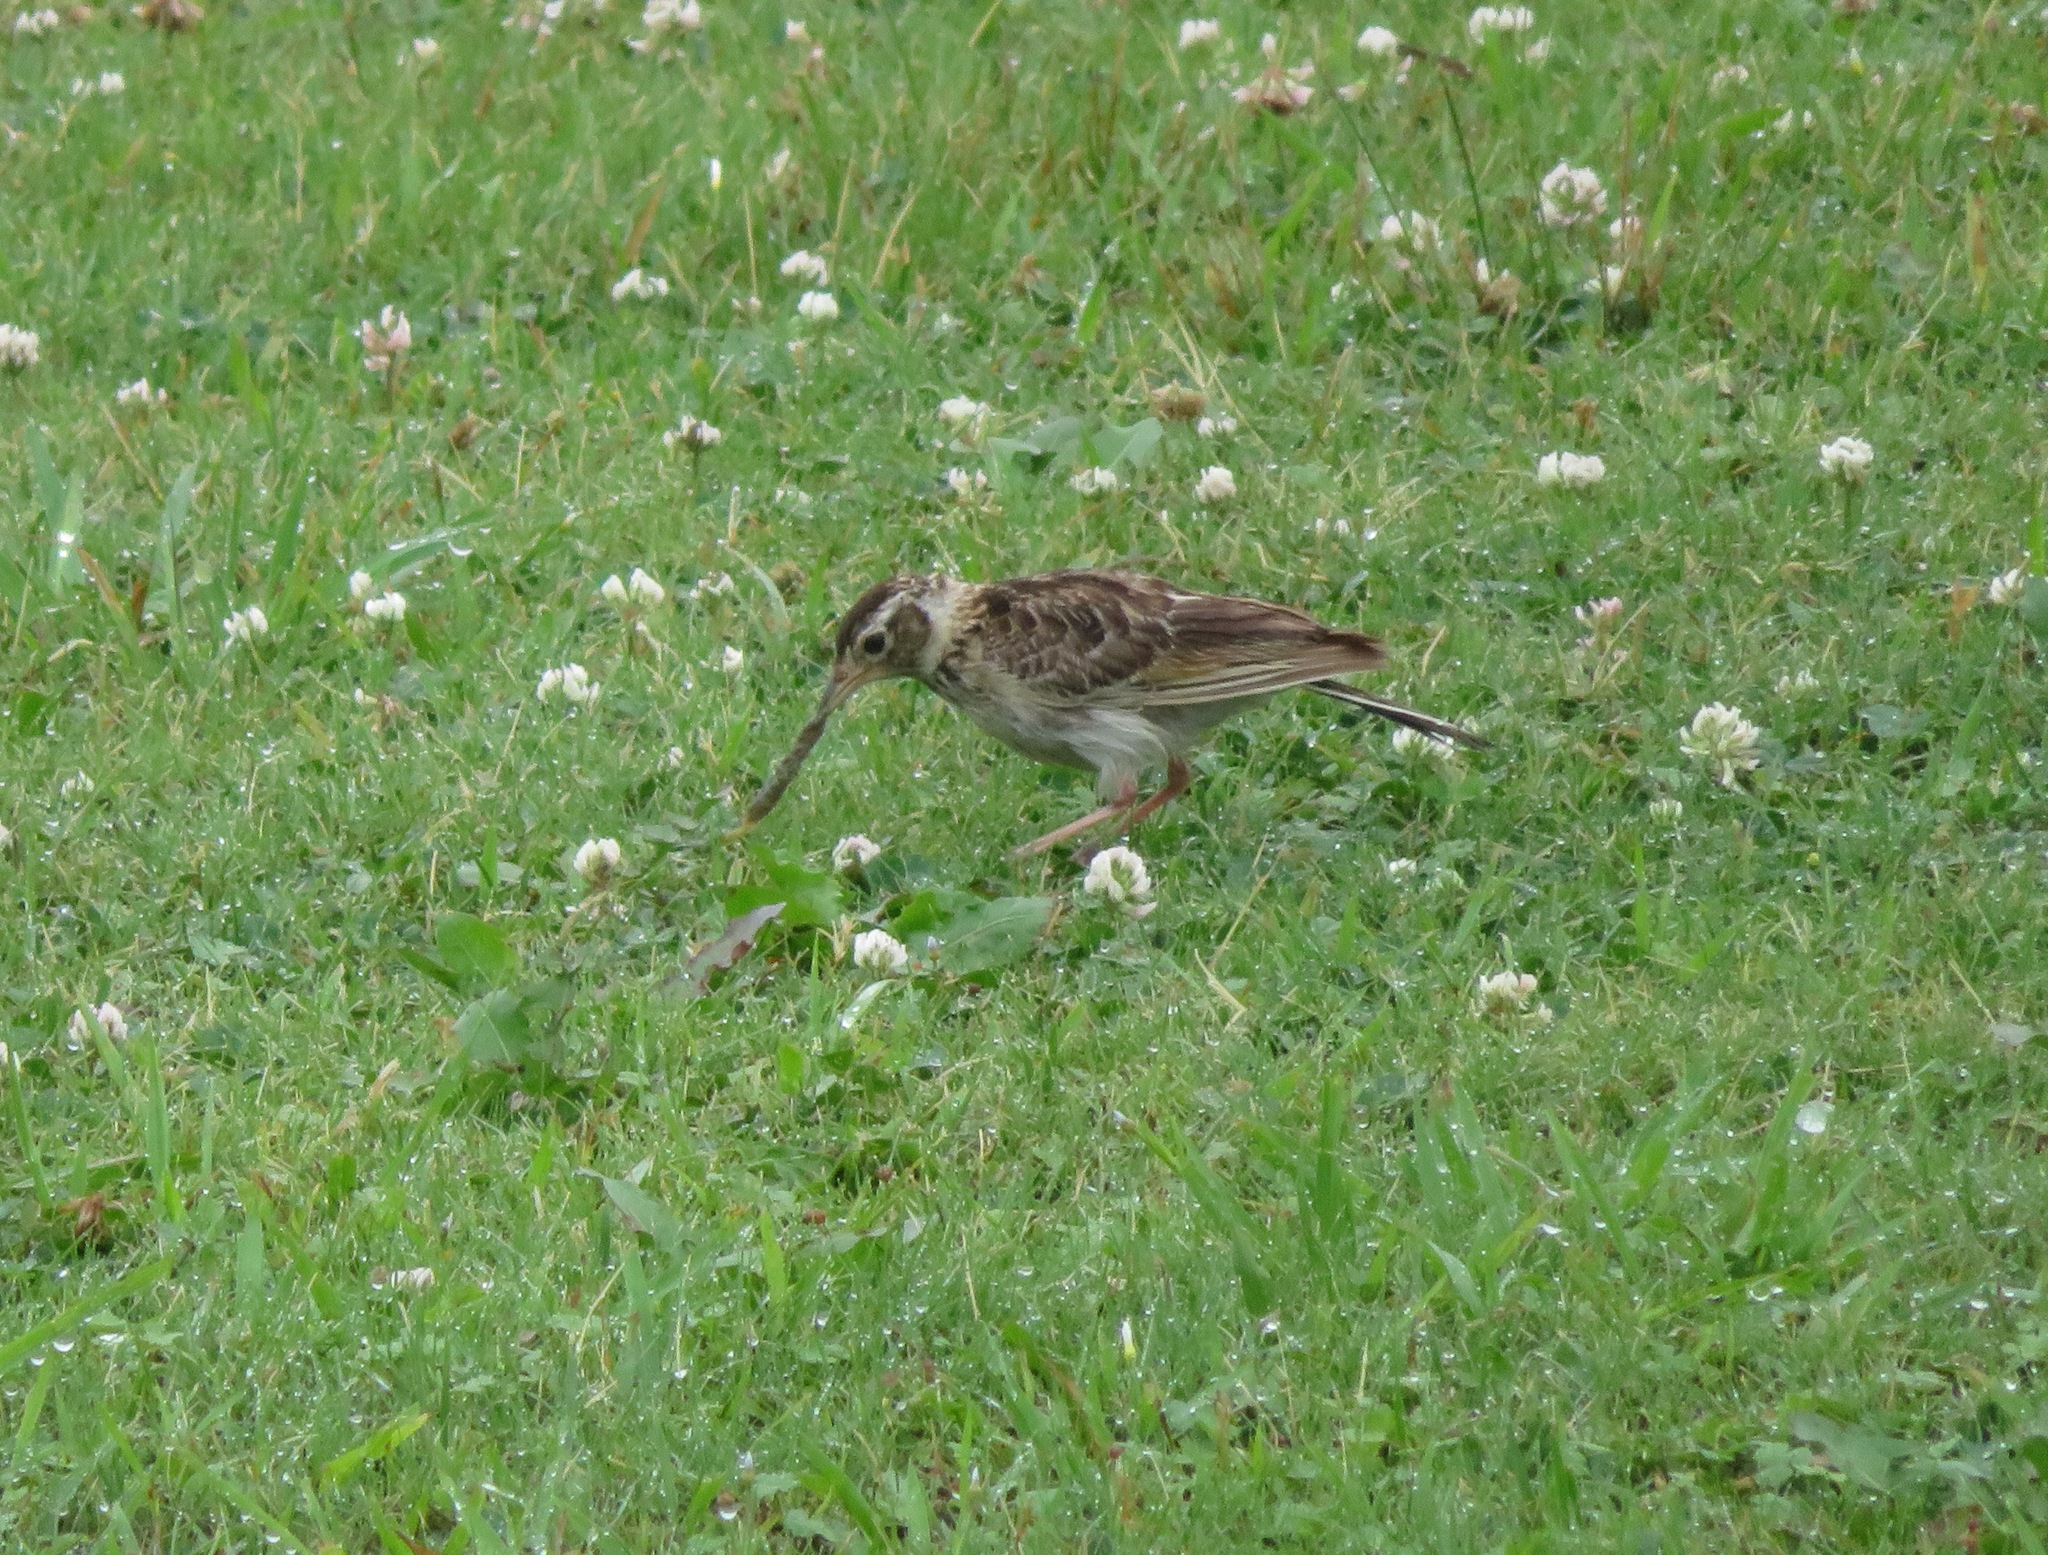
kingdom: Animalia
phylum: Chordata
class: Aves
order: Passeriformes
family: Alaudidae
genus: Alauda
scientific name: Alauda arvensis
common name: Eurasian skylark
